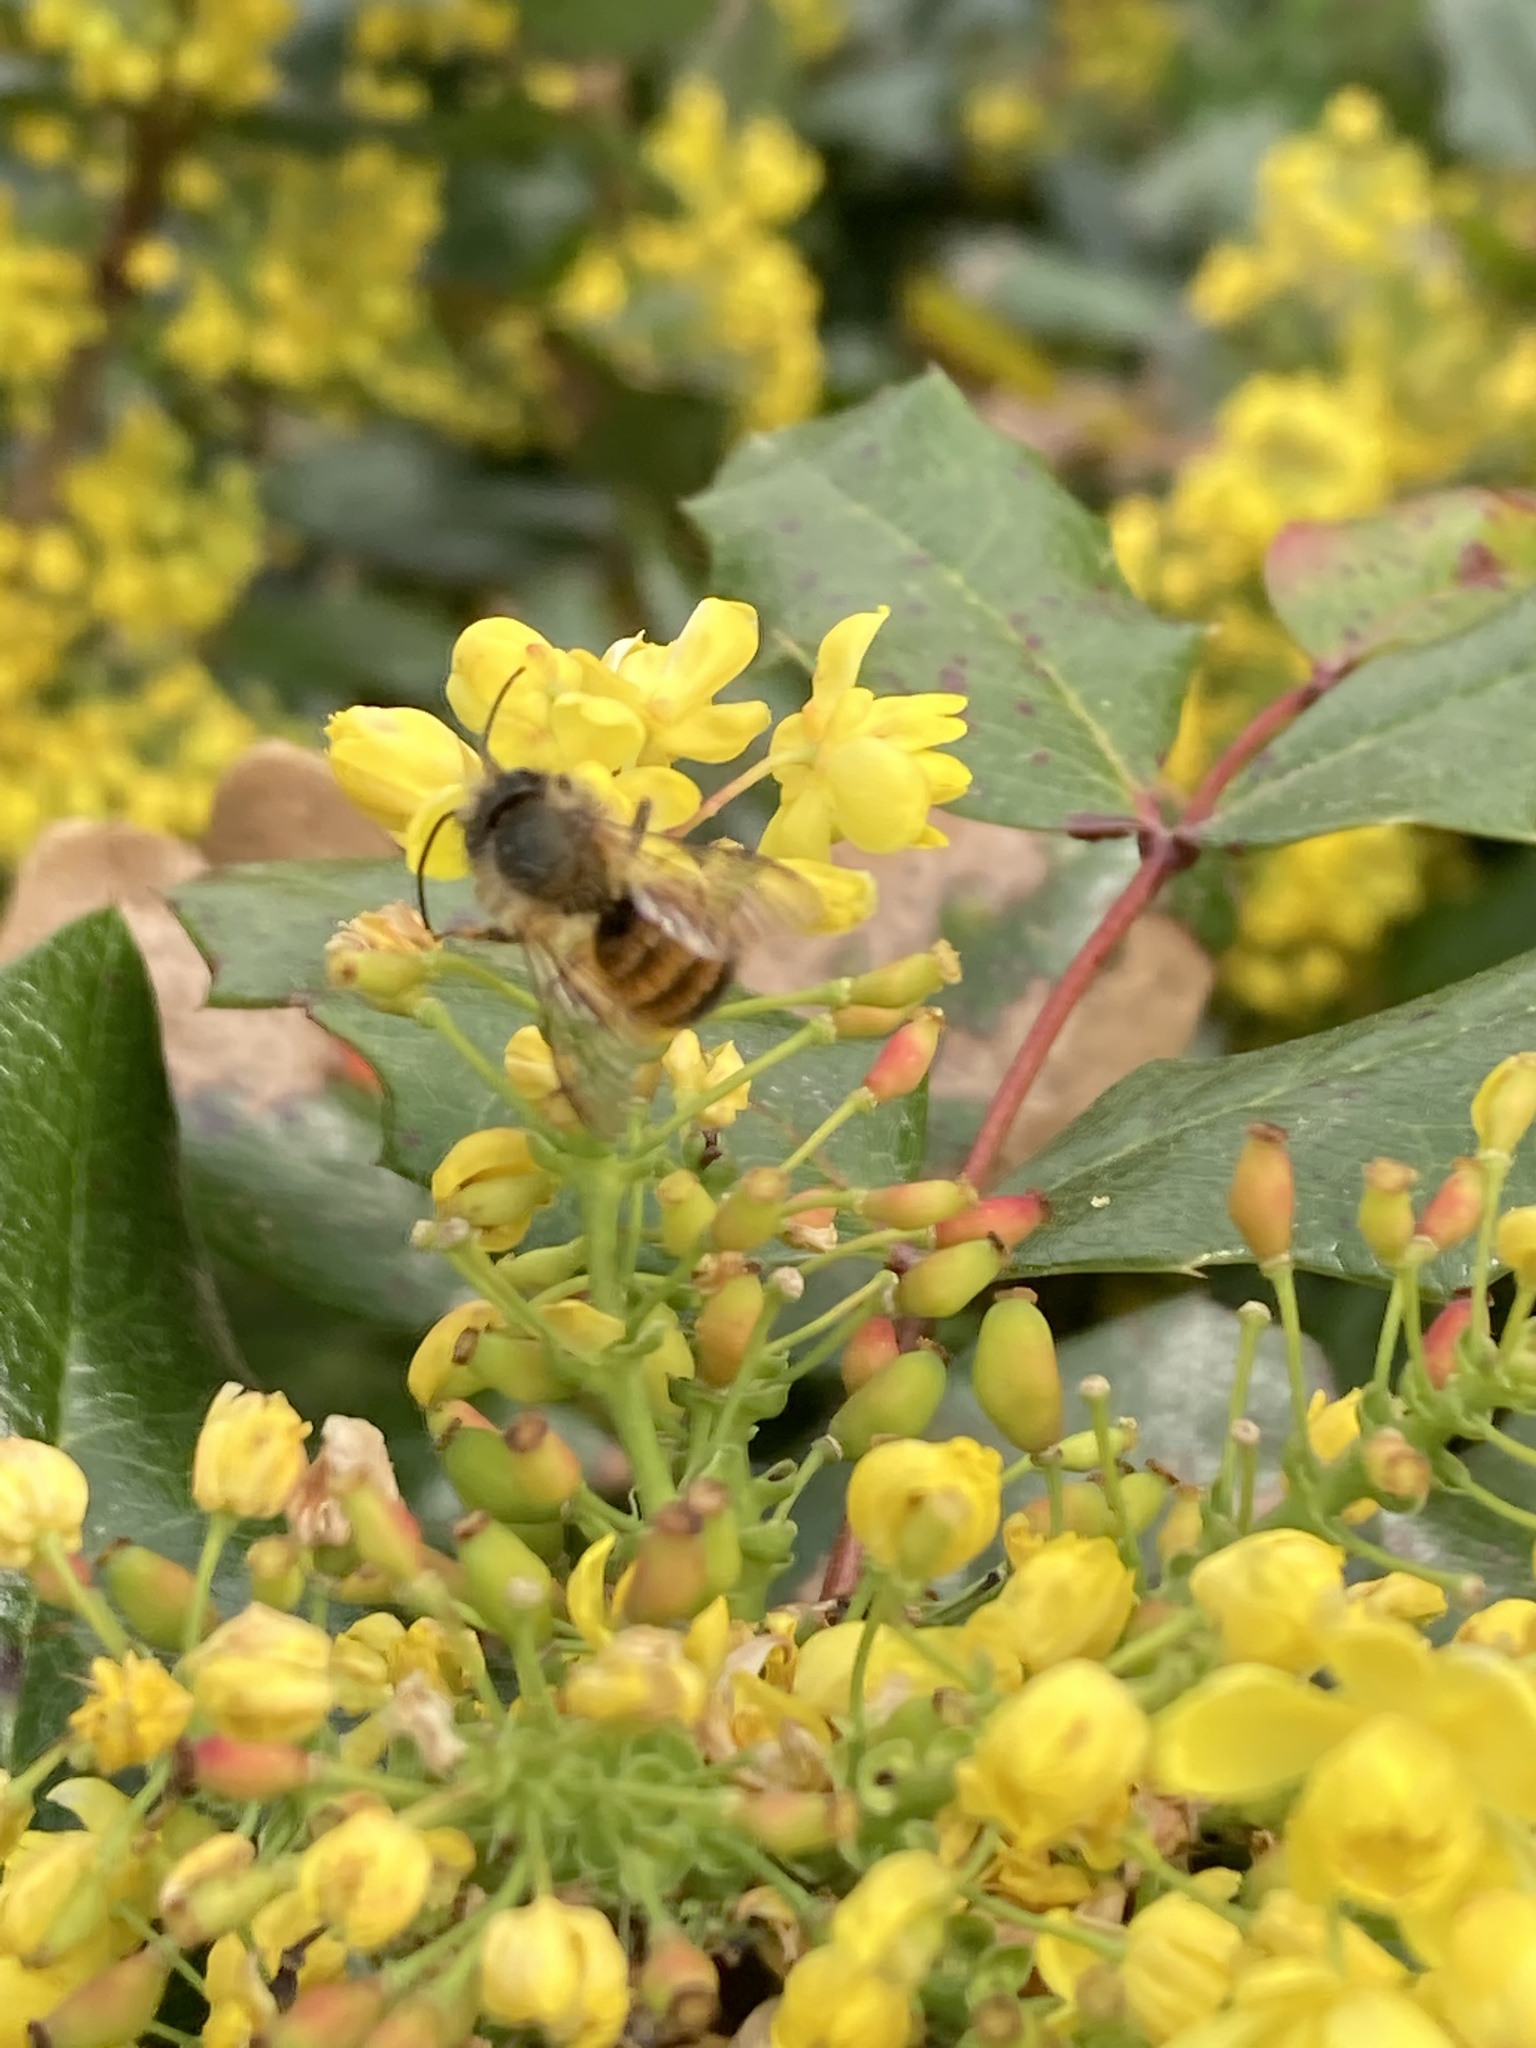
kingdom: Animalia
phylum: Arthropoda
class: Insecta
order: Hymenoptera
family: Megachilidae
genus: Osmia
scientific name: Osmia bicornis
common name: Red mason bee
